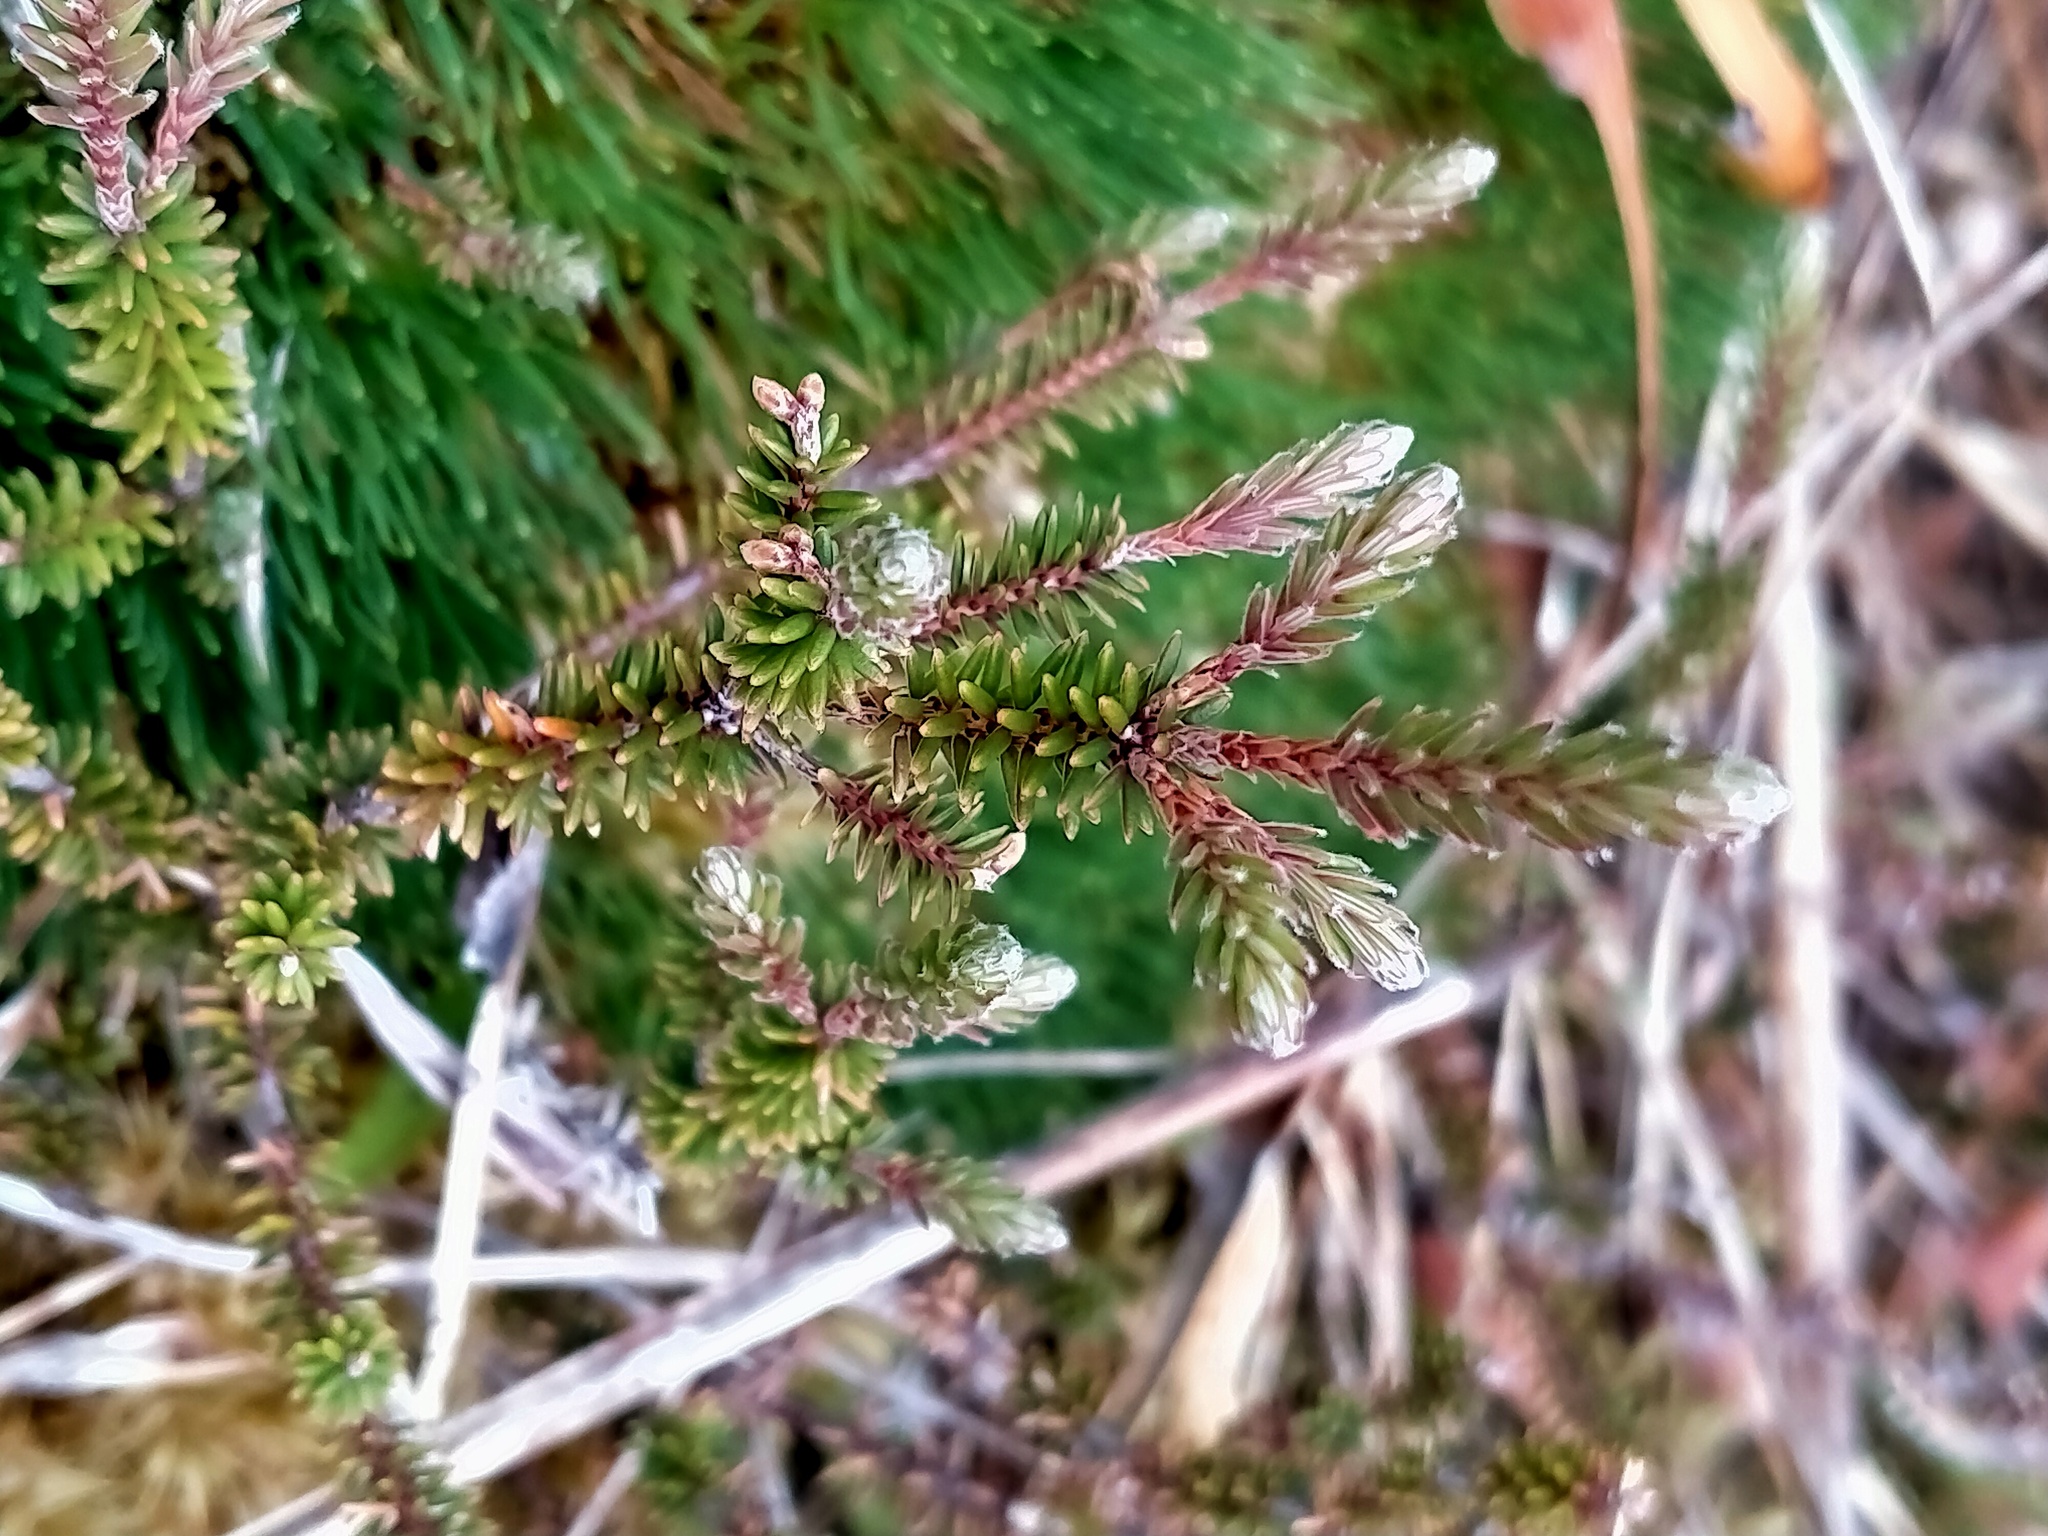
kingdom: Plantae
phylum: Tracheophyta
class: Magnoliopsida
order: Ericales
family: Ericaceae
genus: Androstoma
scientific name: Androstoma empetrifolia
